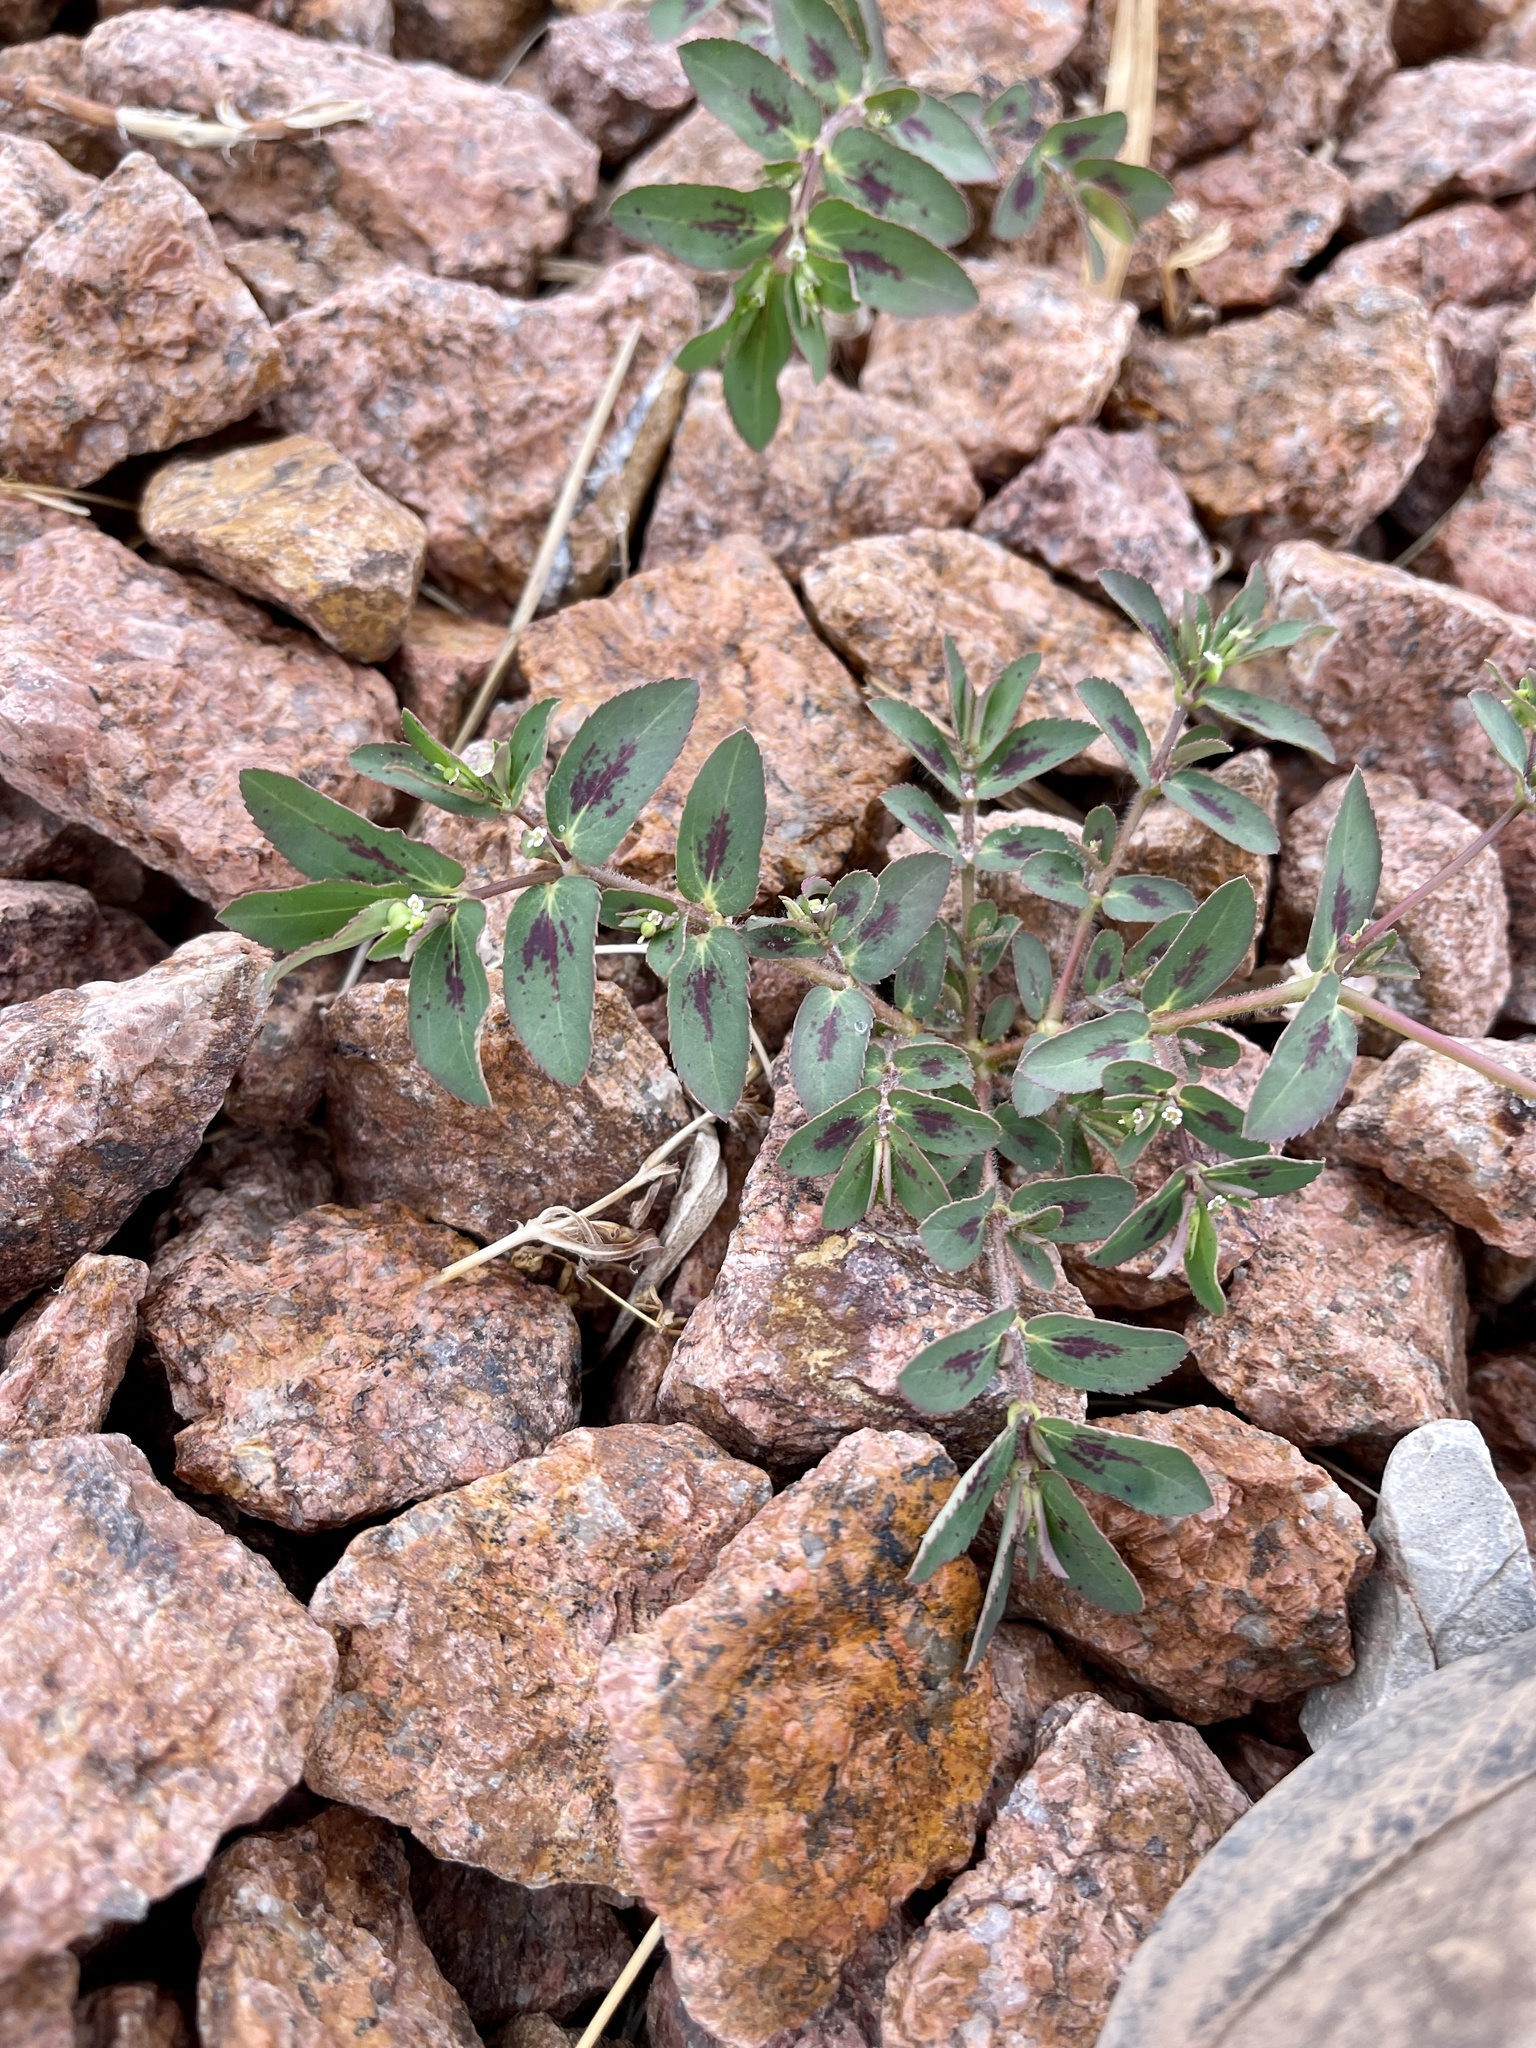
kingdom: Plantae
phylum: Tracheophyta
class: Magnoliopsida
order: Malpighiales
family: Euphorbiaceae
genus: Euphorbia
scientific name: Euphorbia hyssopifolia
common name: Hyssopleaf sandmat
